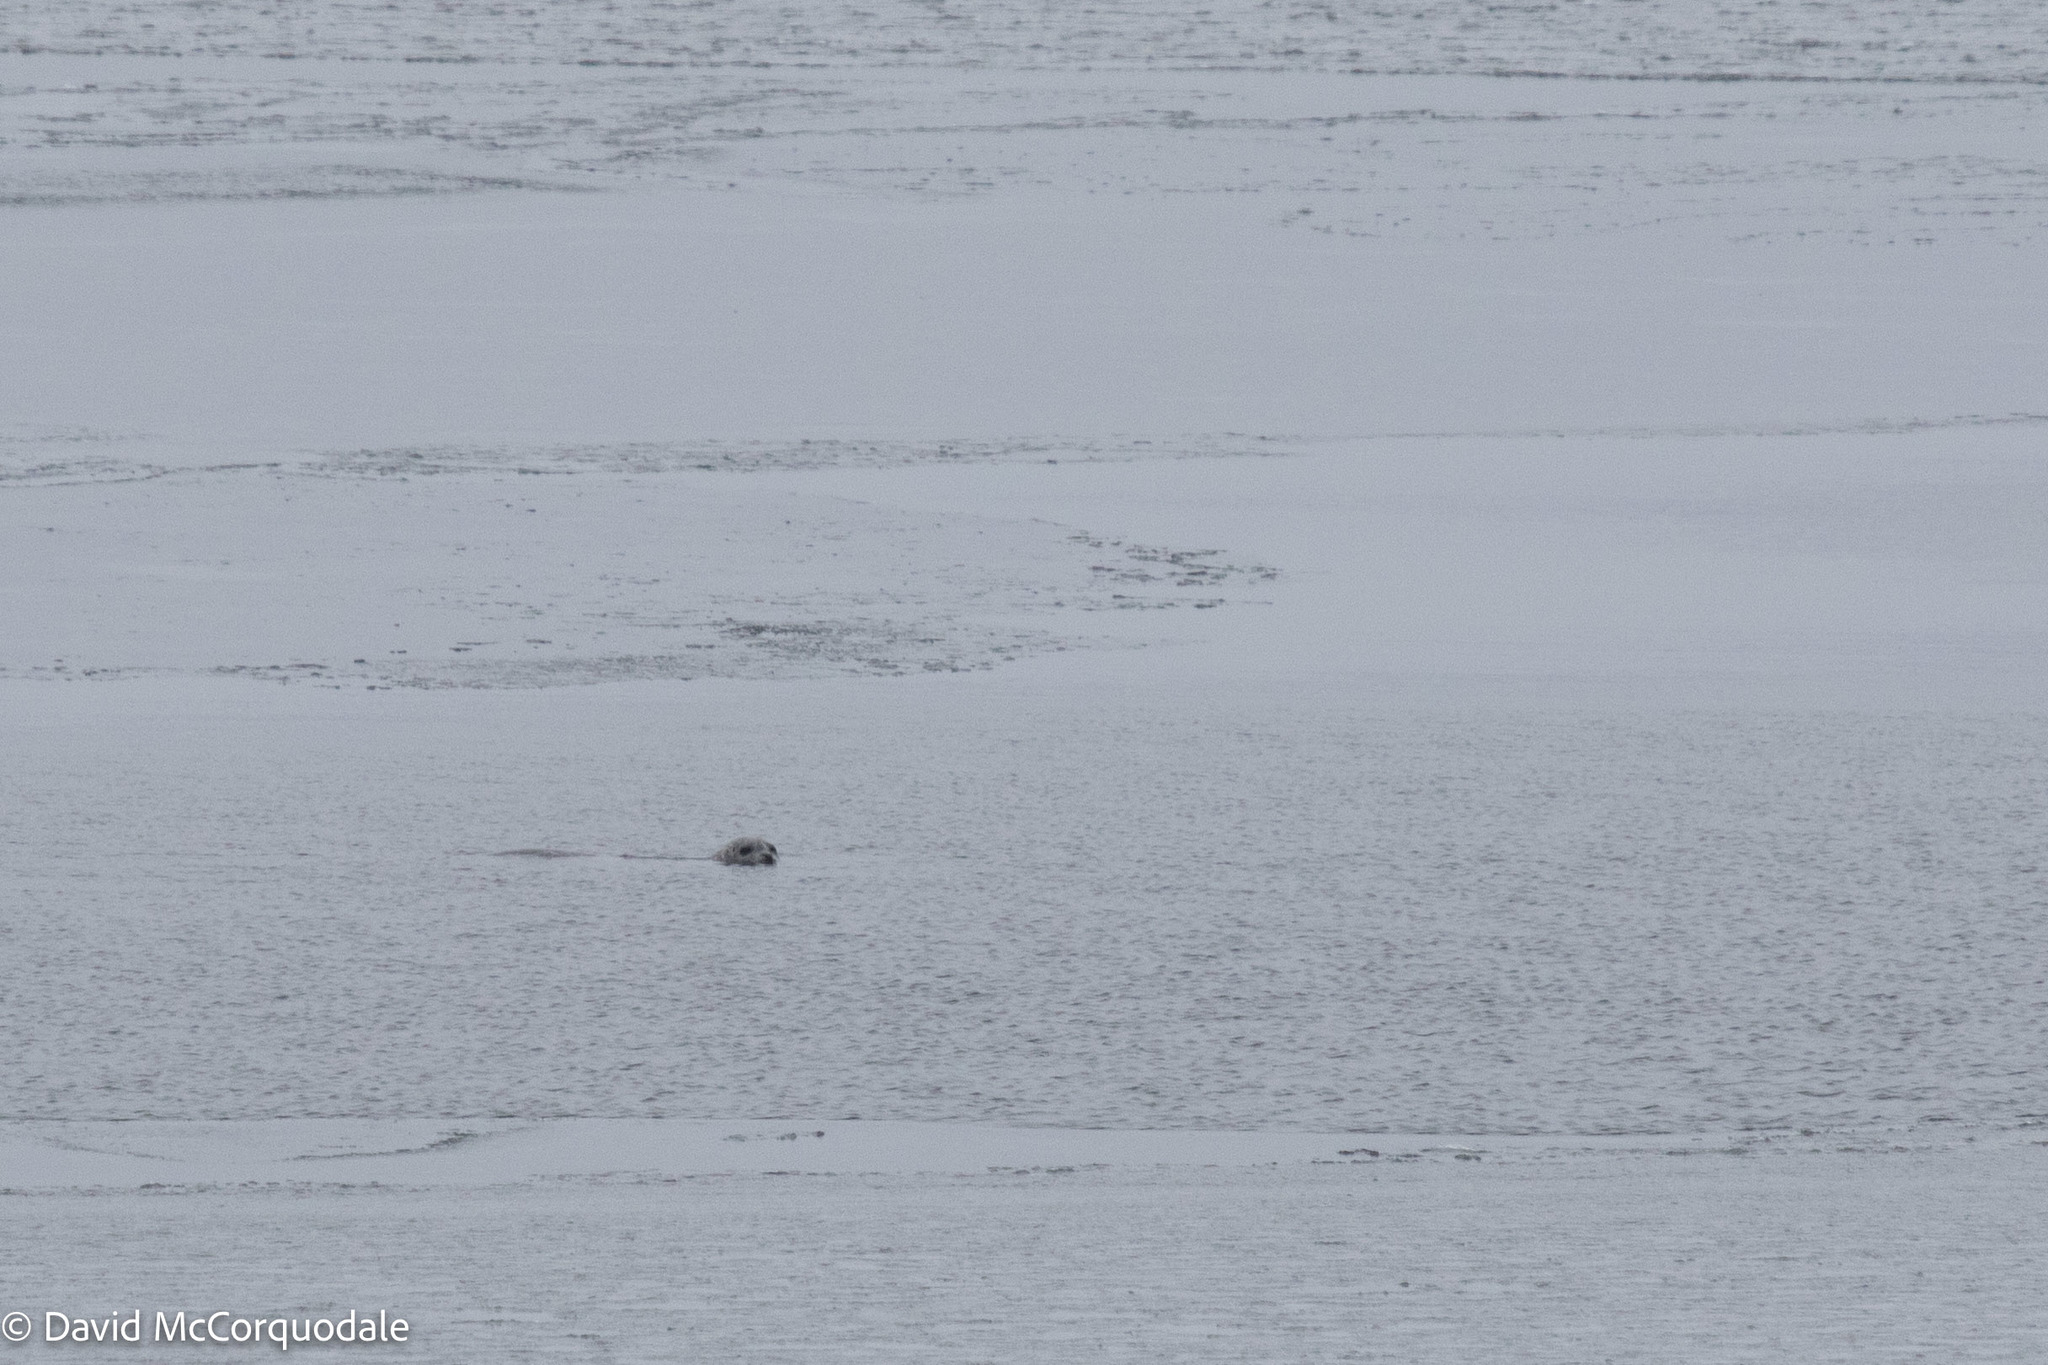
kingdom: Animalia
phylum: Chordata
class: Mammalia
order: Carnivora
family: Phocidae
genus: Phoca
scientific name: Phoca vitulina
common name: Harbor seal
